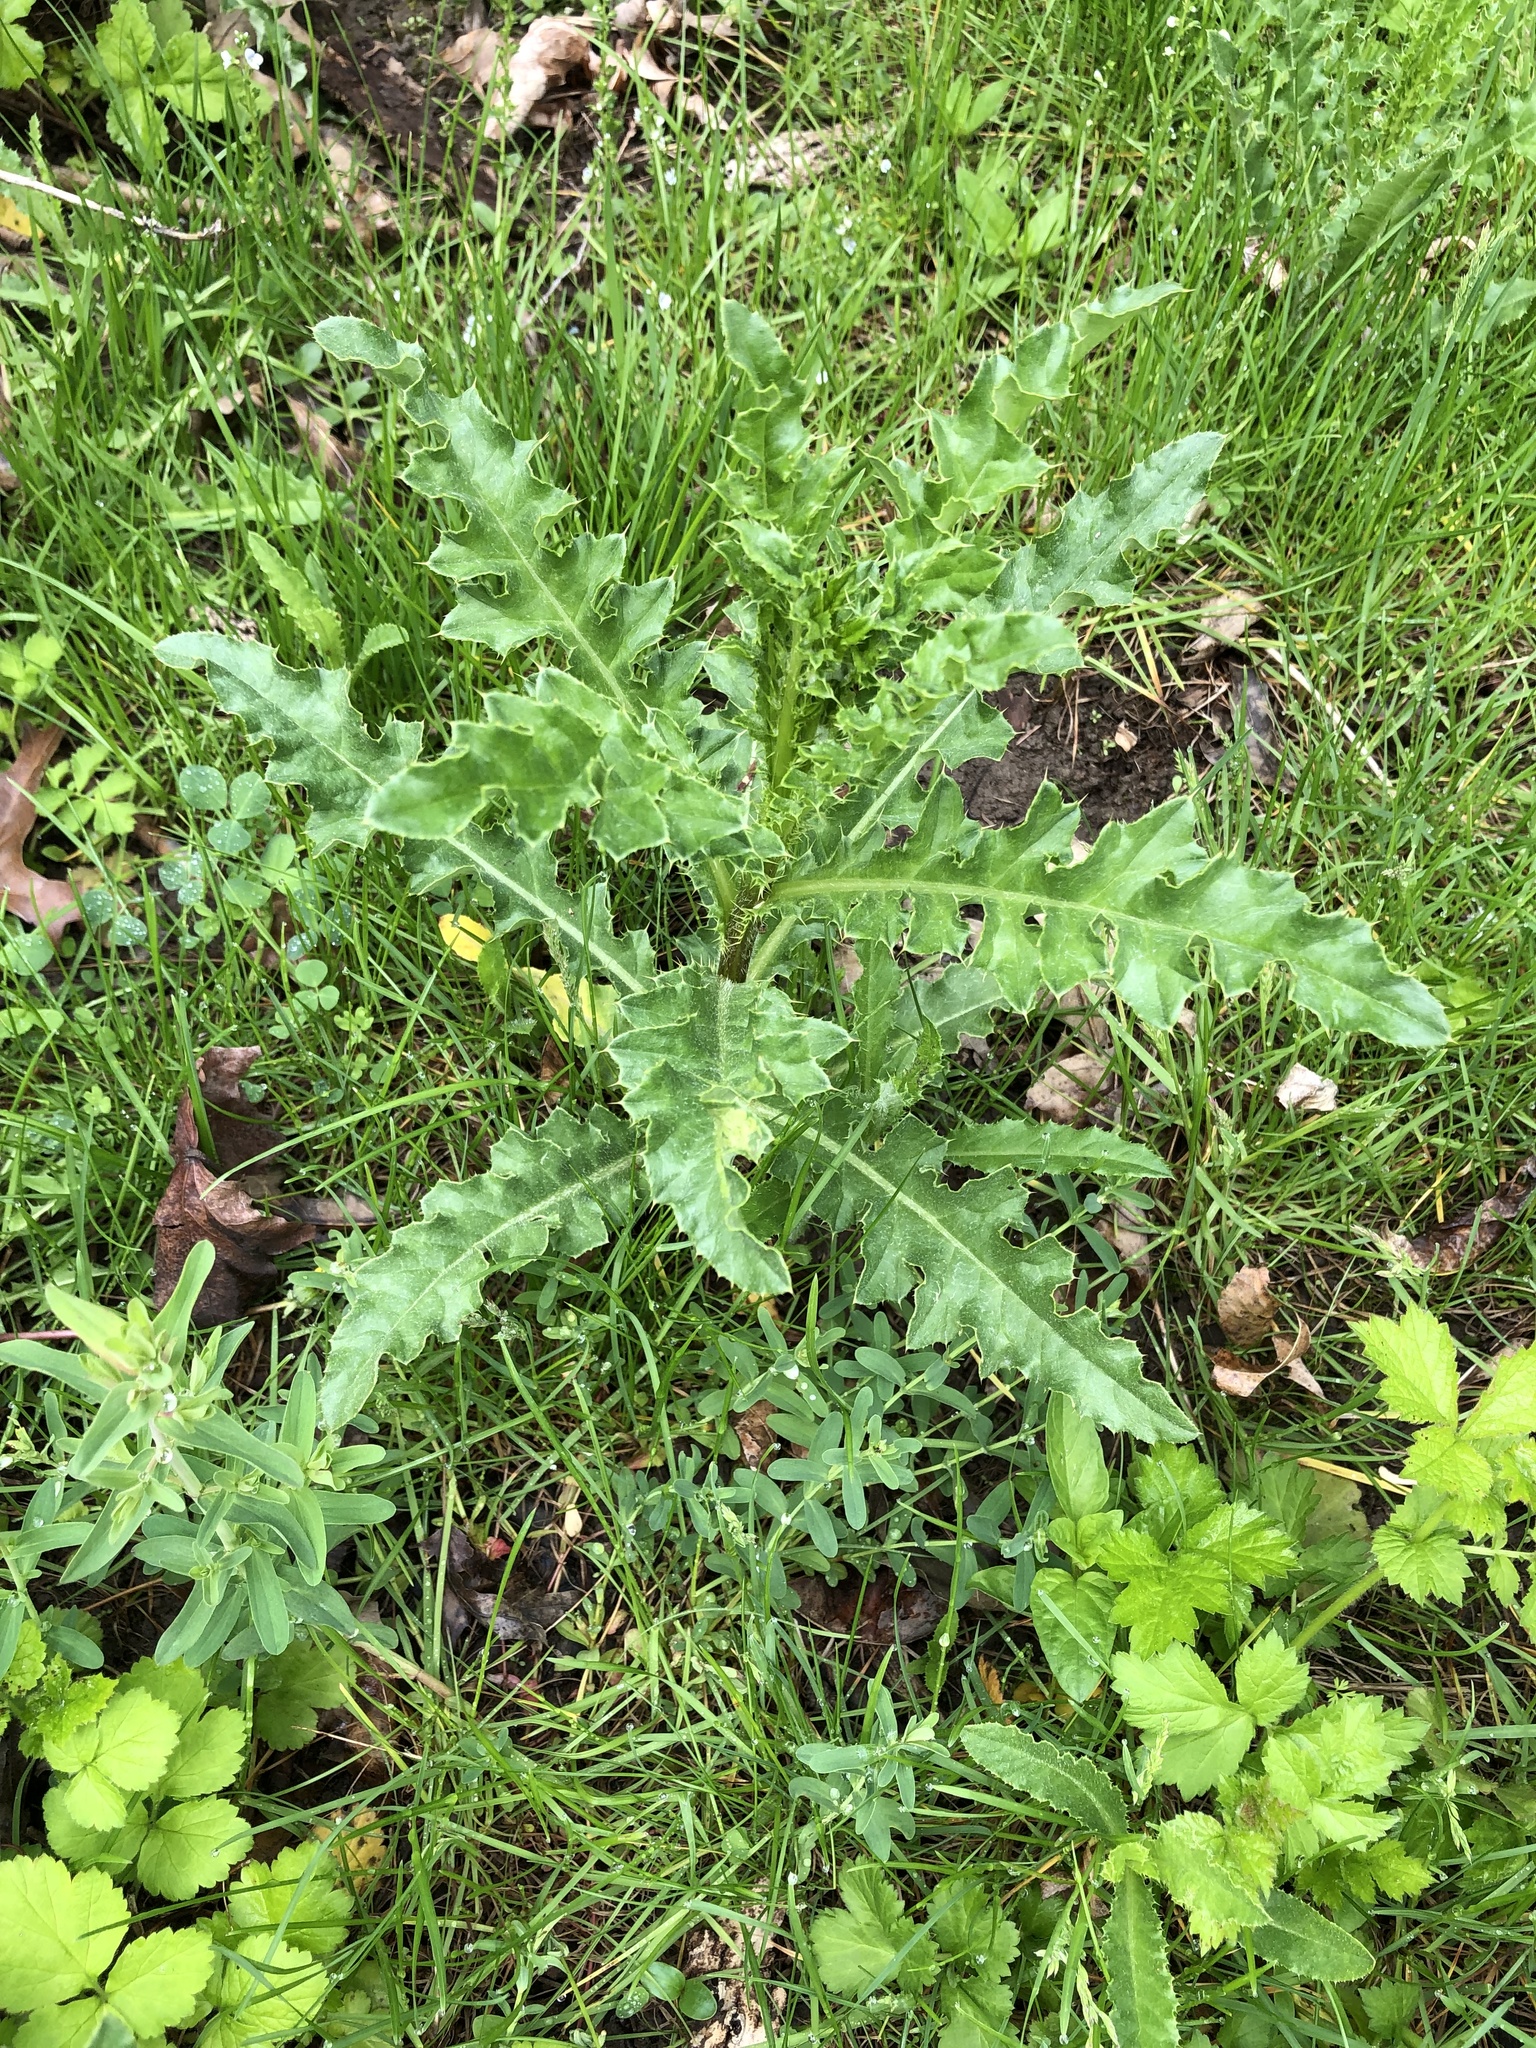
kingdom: Plantae
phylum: Tracheophyta
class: Magnoliopsida
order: Asterales
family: Asteraceae
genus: Cirsium
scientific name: Cirsium arvense
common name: Creeping thistle
